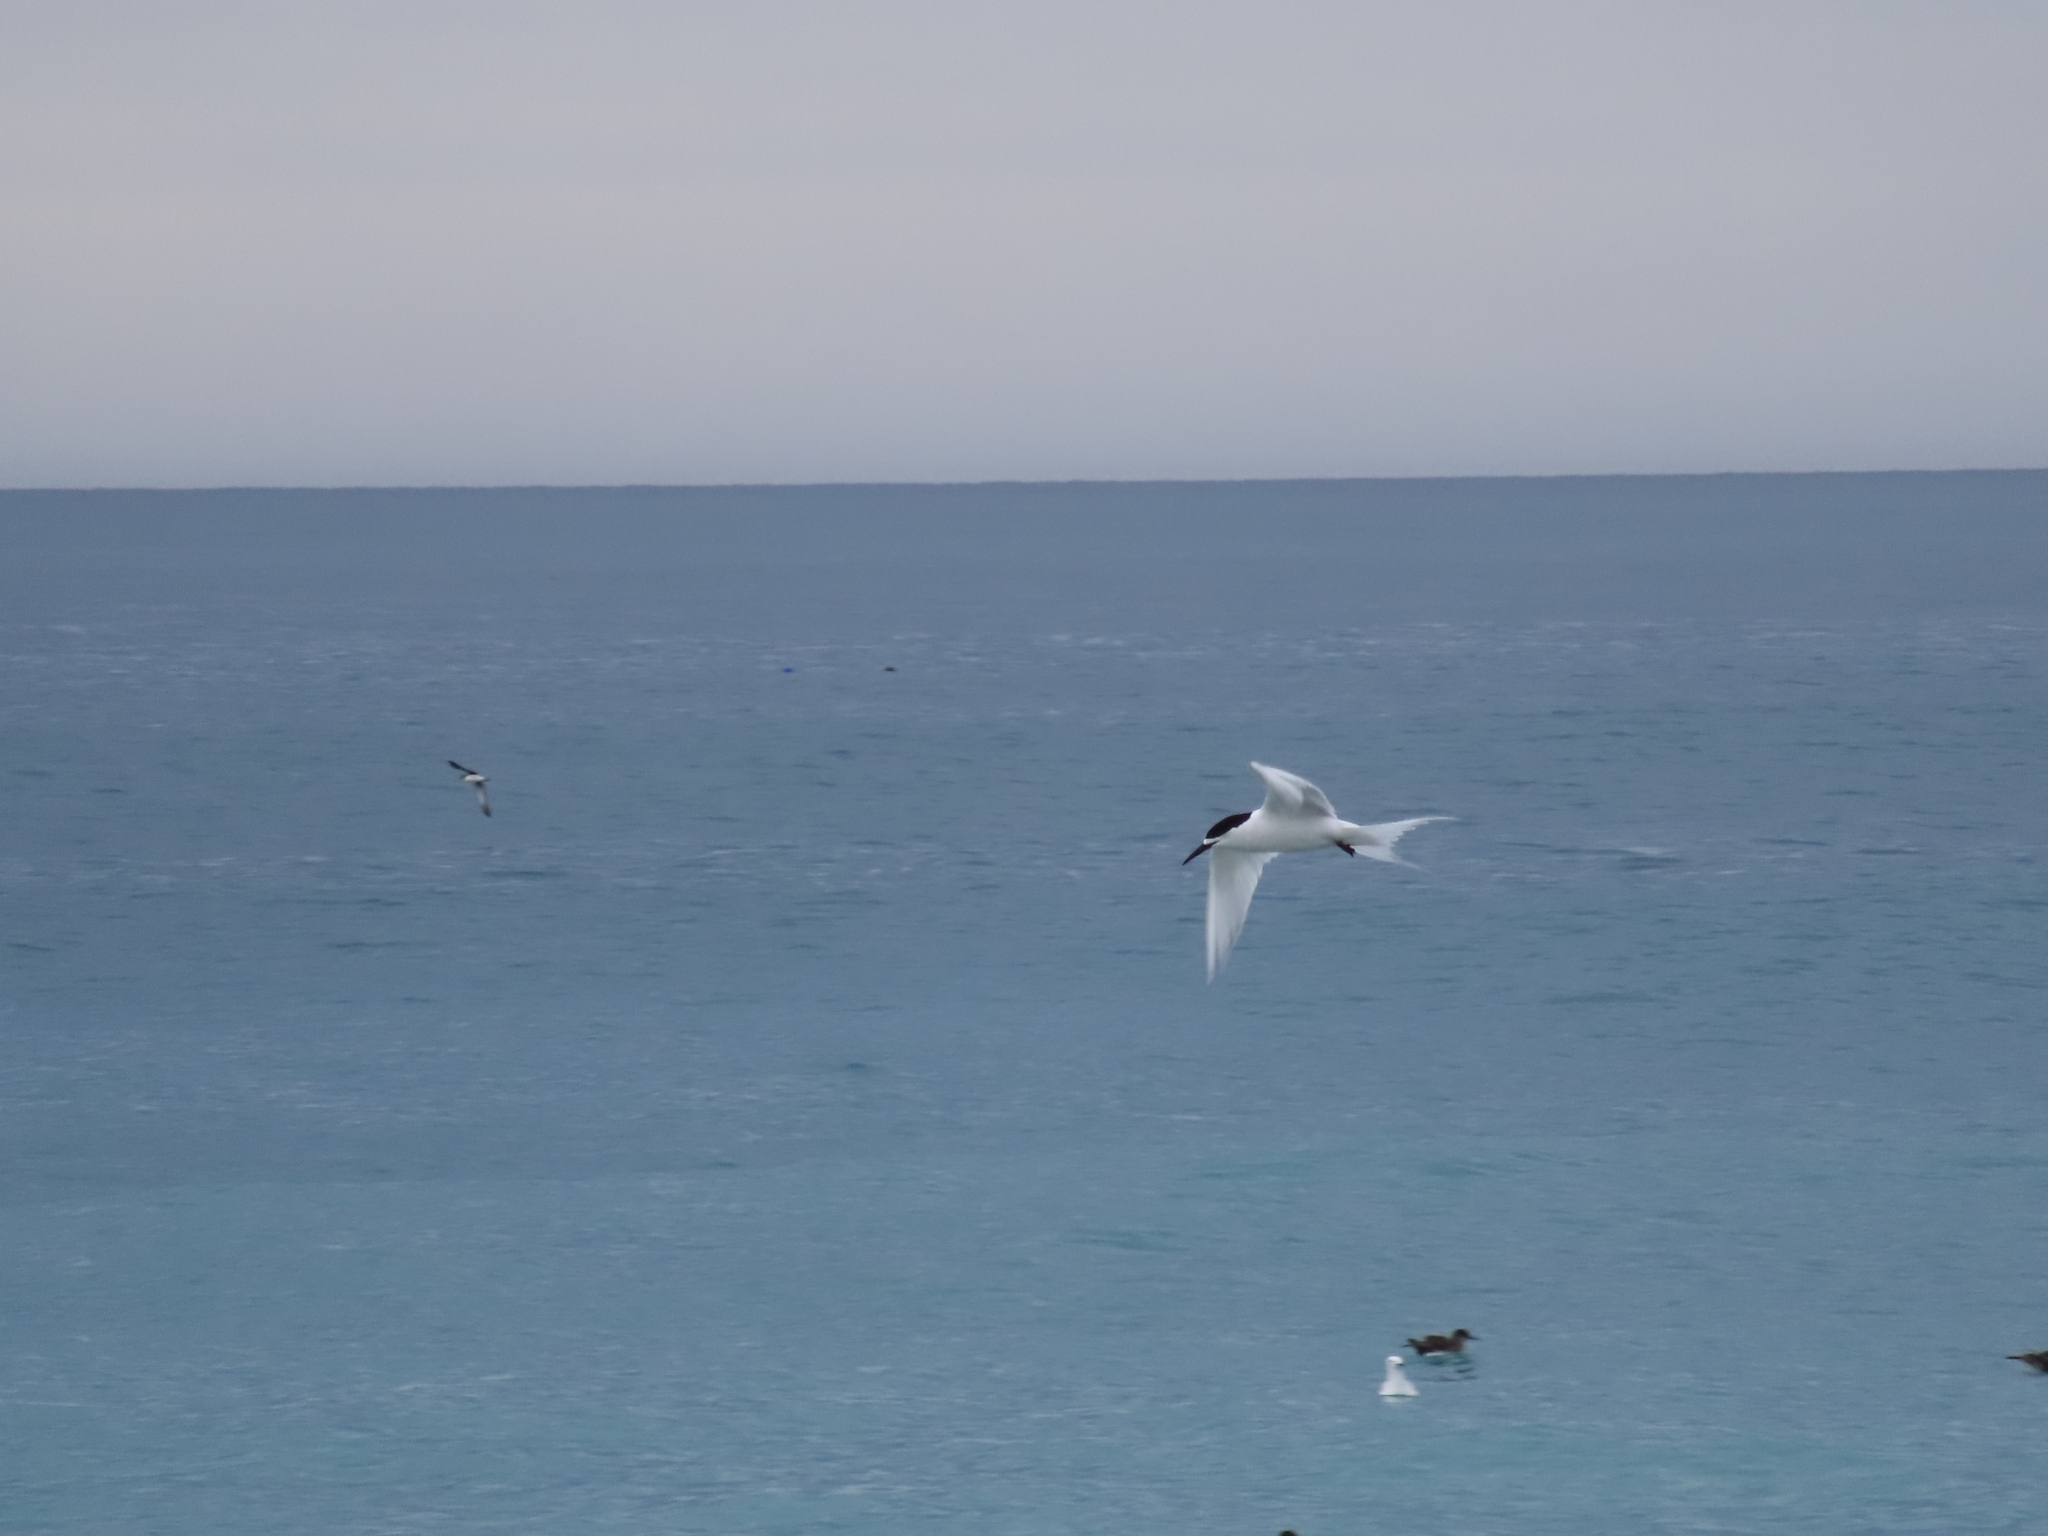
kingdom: Animalia
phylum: Chordata
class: Aves
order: Charadriiformes
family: Laridae
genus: Sterna
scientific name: Sterna striata
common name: White-fronted tern
